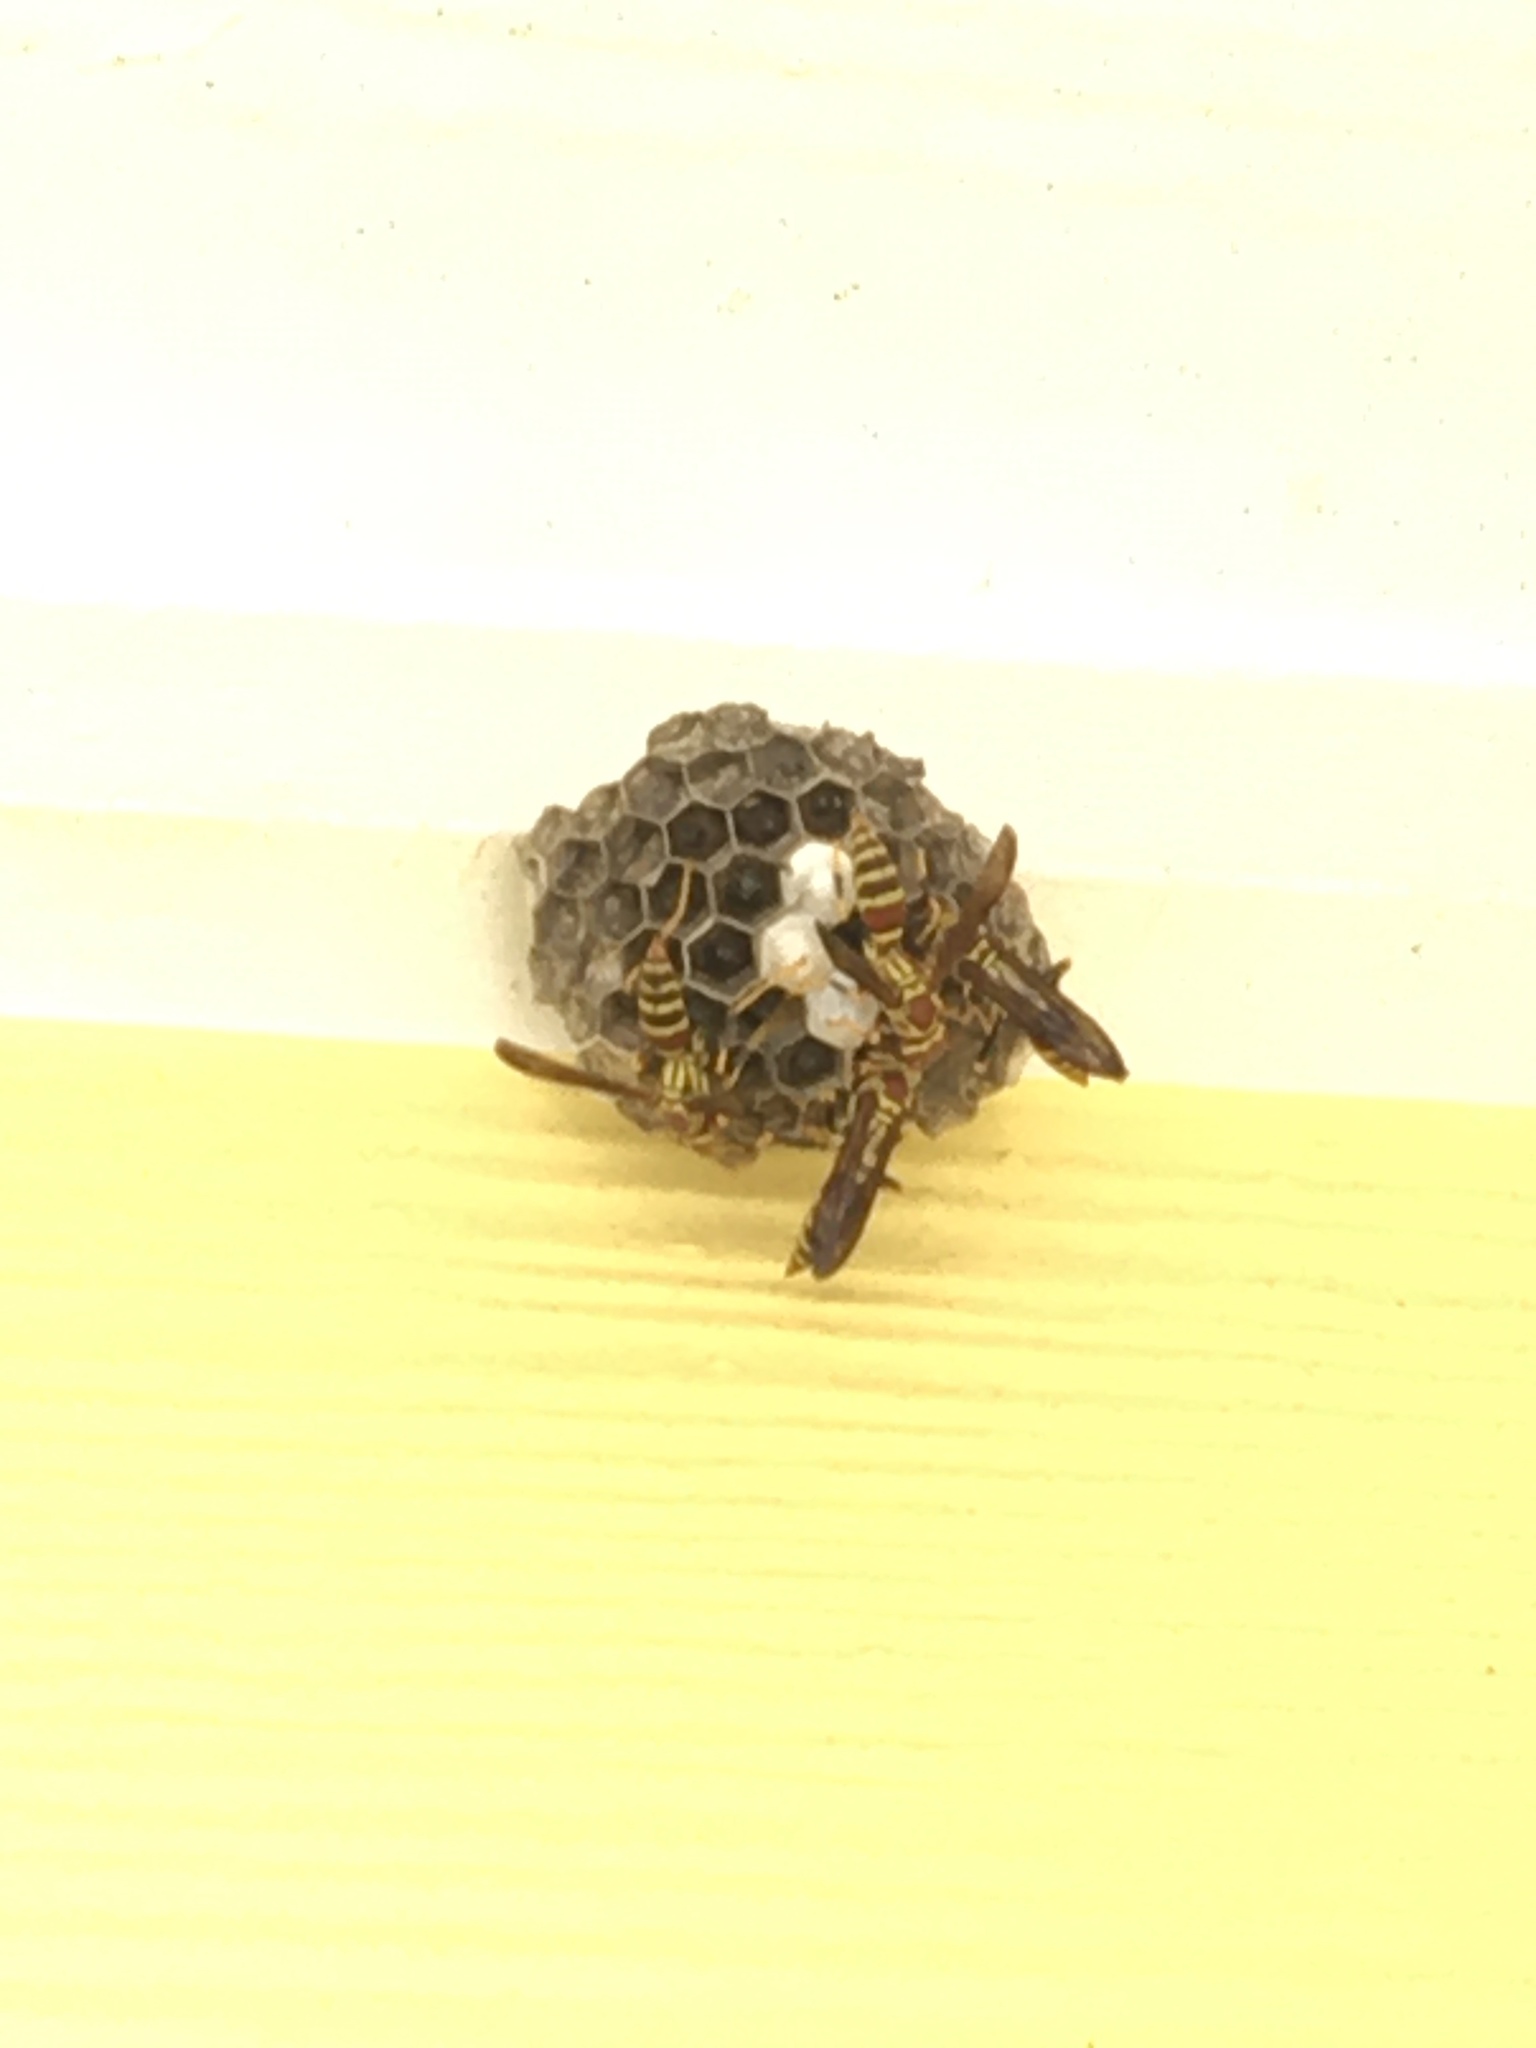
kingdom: Animalia
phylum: Arthropoda
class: Insecta
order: Hymenoptera
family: Eumenidae
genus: Polistes
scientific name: Polistes exclamans
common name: Paper wasp
